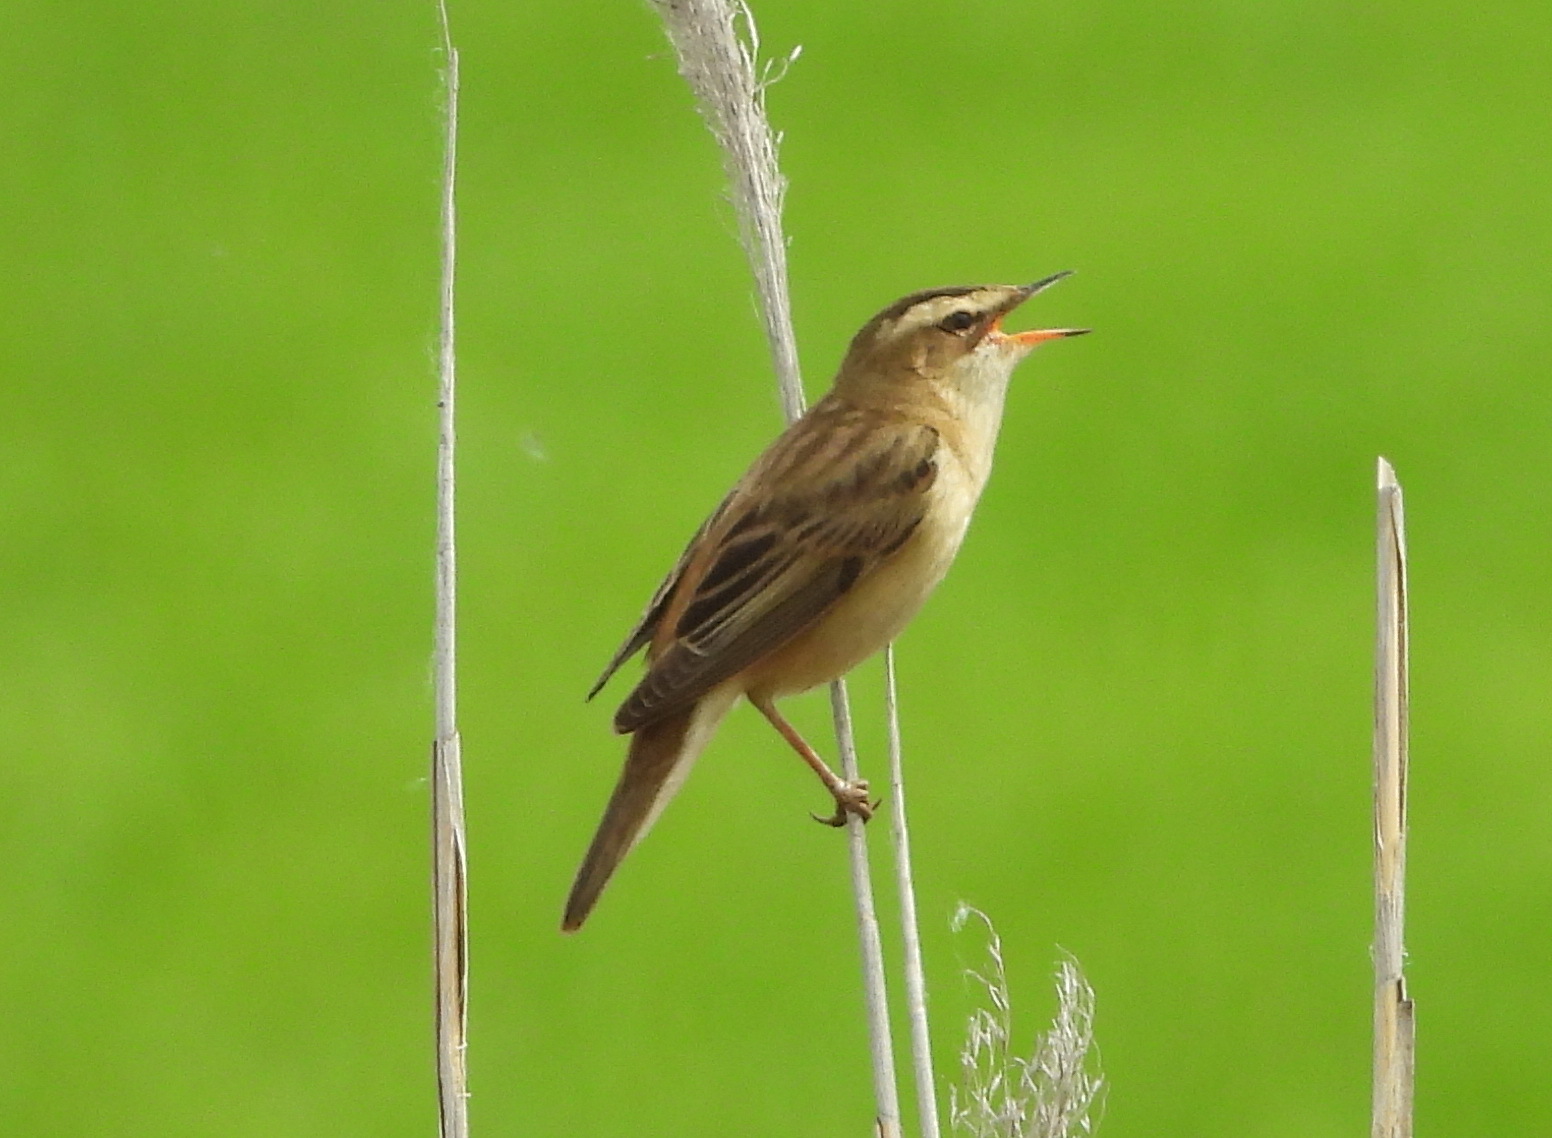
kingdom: Animalia
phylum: Chordata
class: Aves
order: Passeriformes
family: Acrocephalidae
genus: Acrocephalus
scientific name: Acrocephalus schoenobaenus
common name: Sedge warbler
